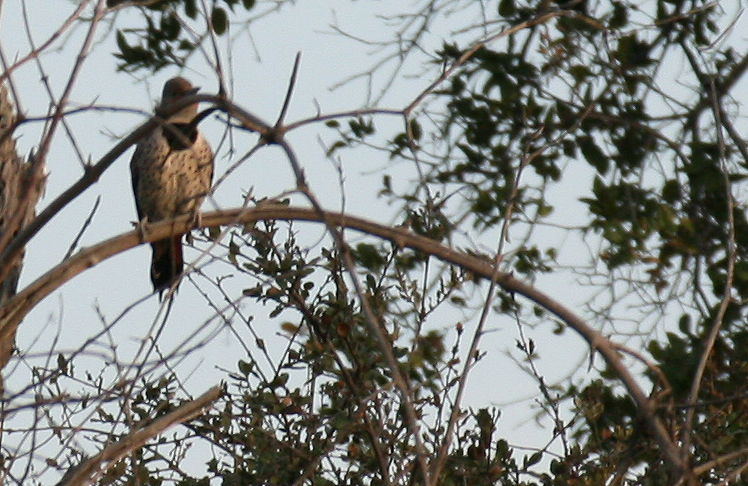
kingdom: Animalia
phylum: Chordata
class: Aves
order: Piciformes
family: Picidae
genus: Colaptes
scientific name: Colaptes auratus
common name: Northern flicker
